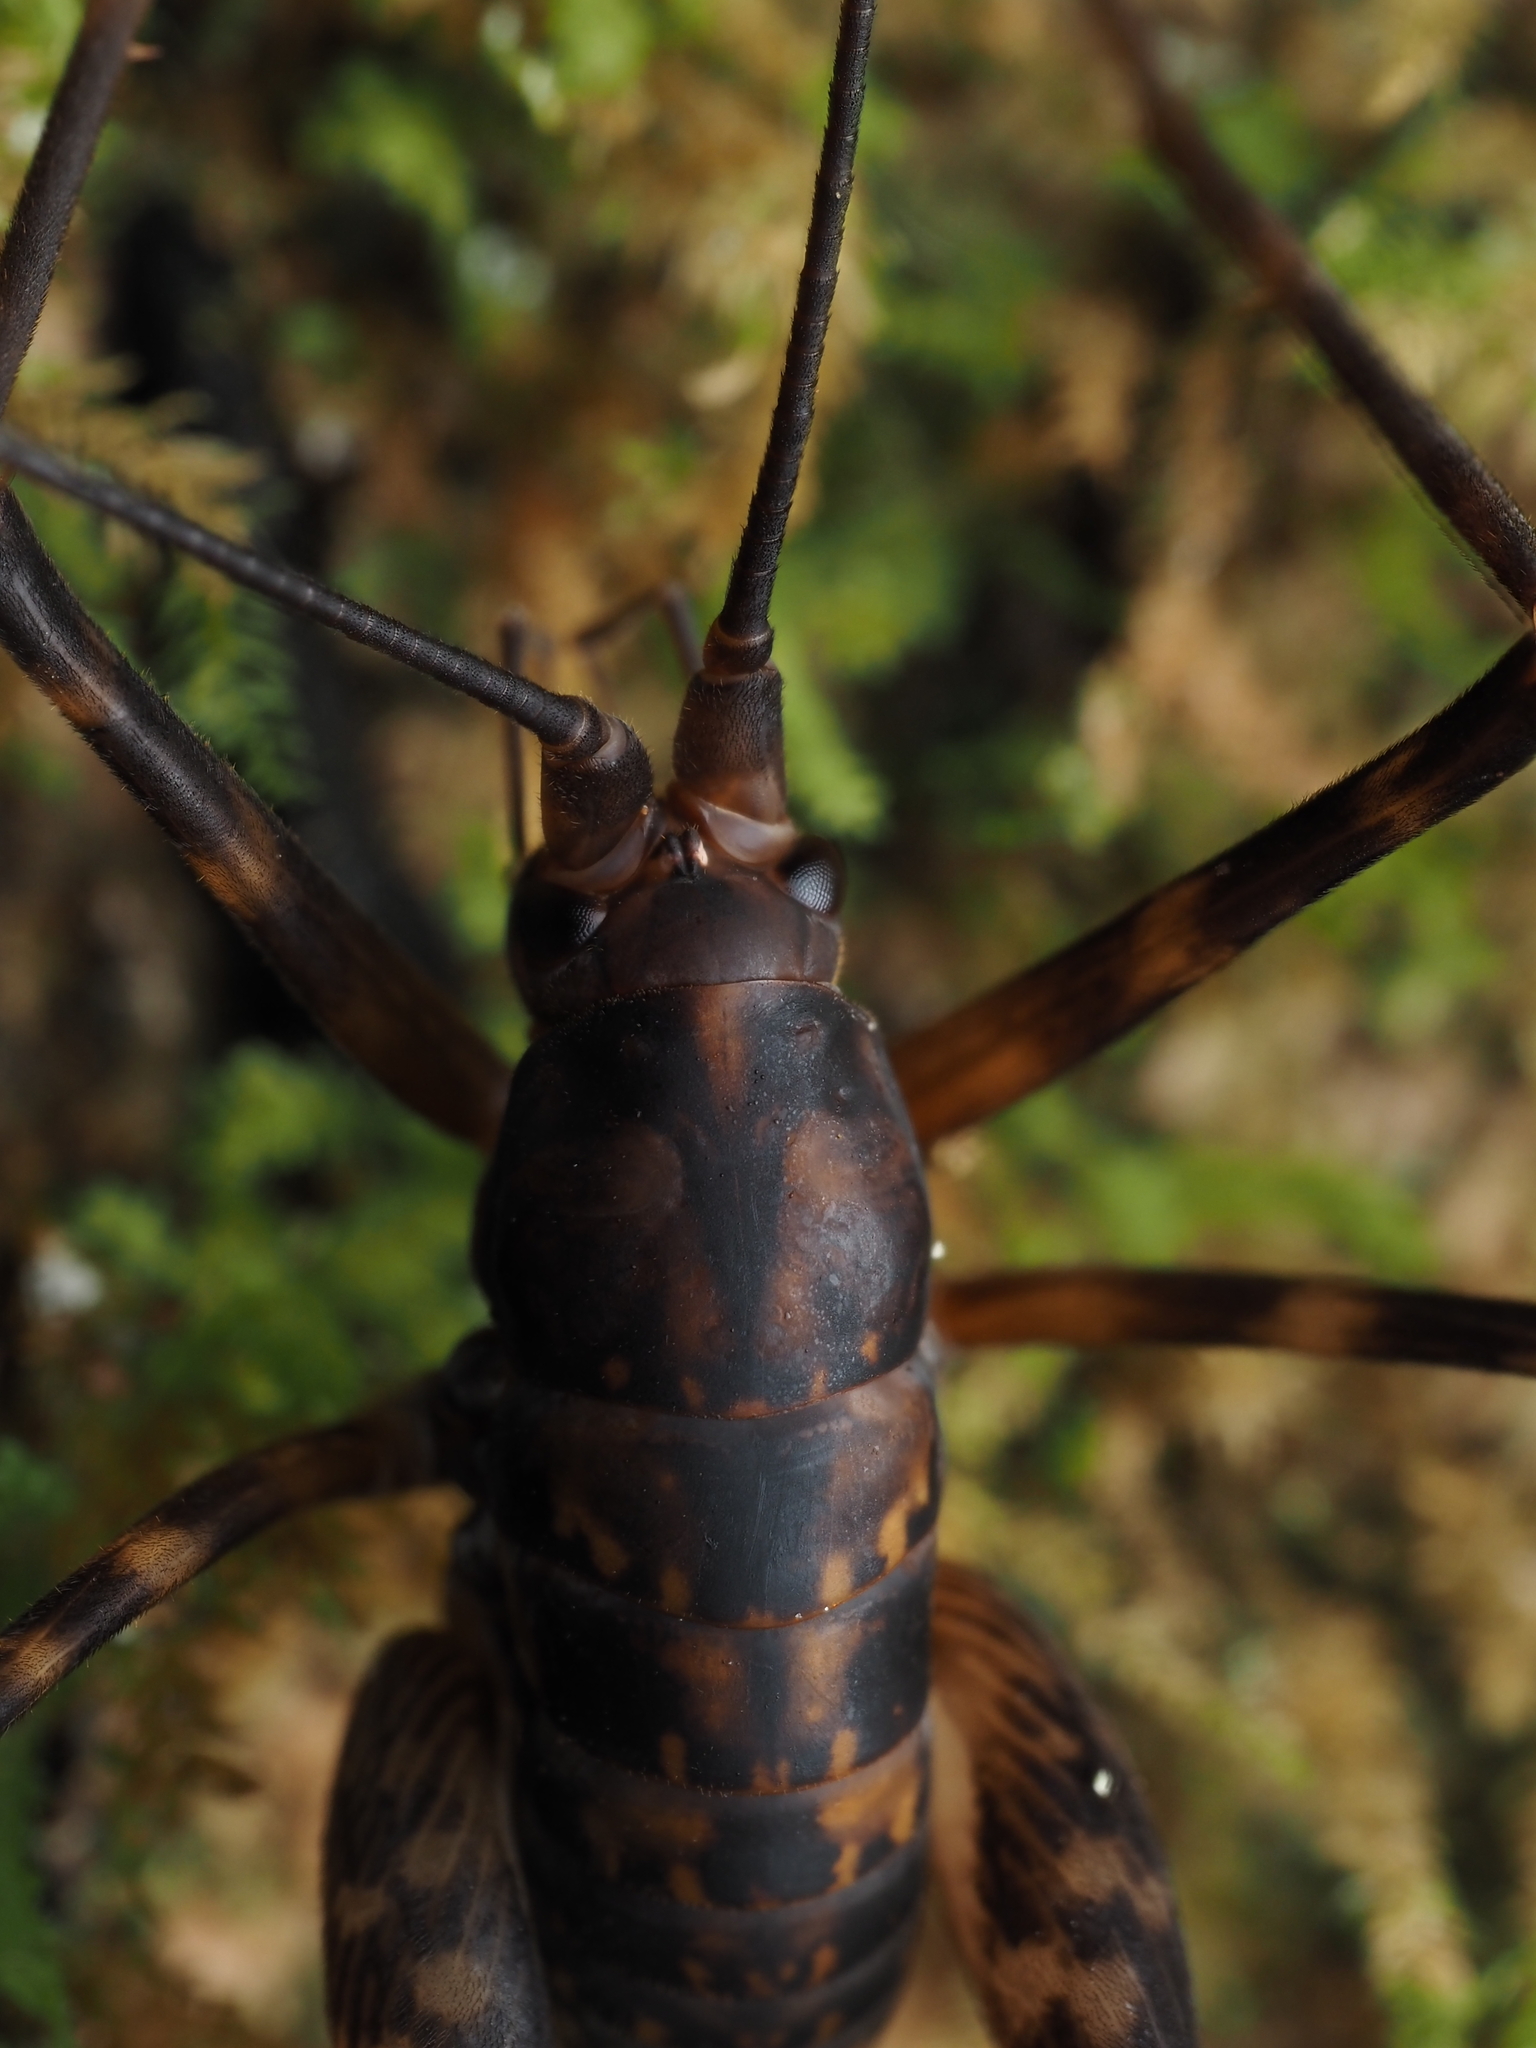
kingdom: Animalia
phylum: Arthropoda
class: Insecta
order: Orthoptera
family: Rhaphidophoridae
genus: Miotopus
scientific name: Miotopus richardsae
